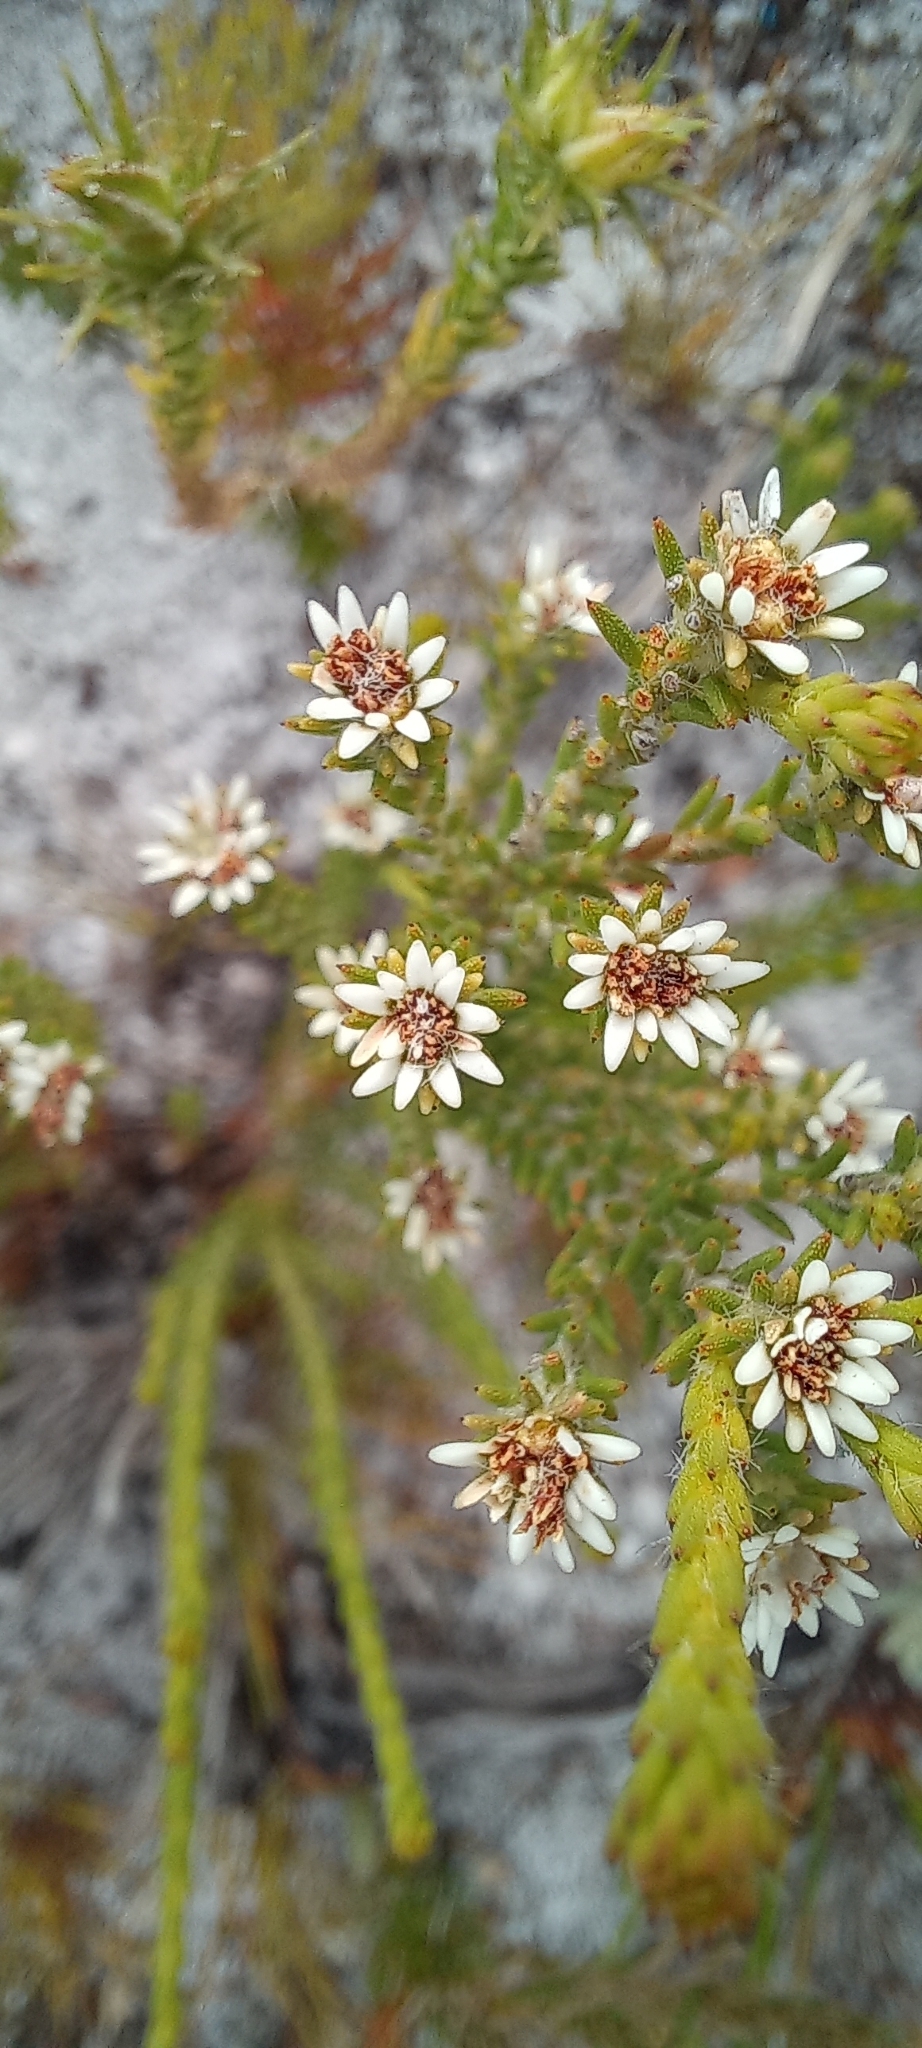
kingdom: Plantae
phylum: Tracheophyta
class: Magnoliopsida
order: Bruniales
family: Bruniaceae
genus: Staavia
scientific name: Staavia radiata
